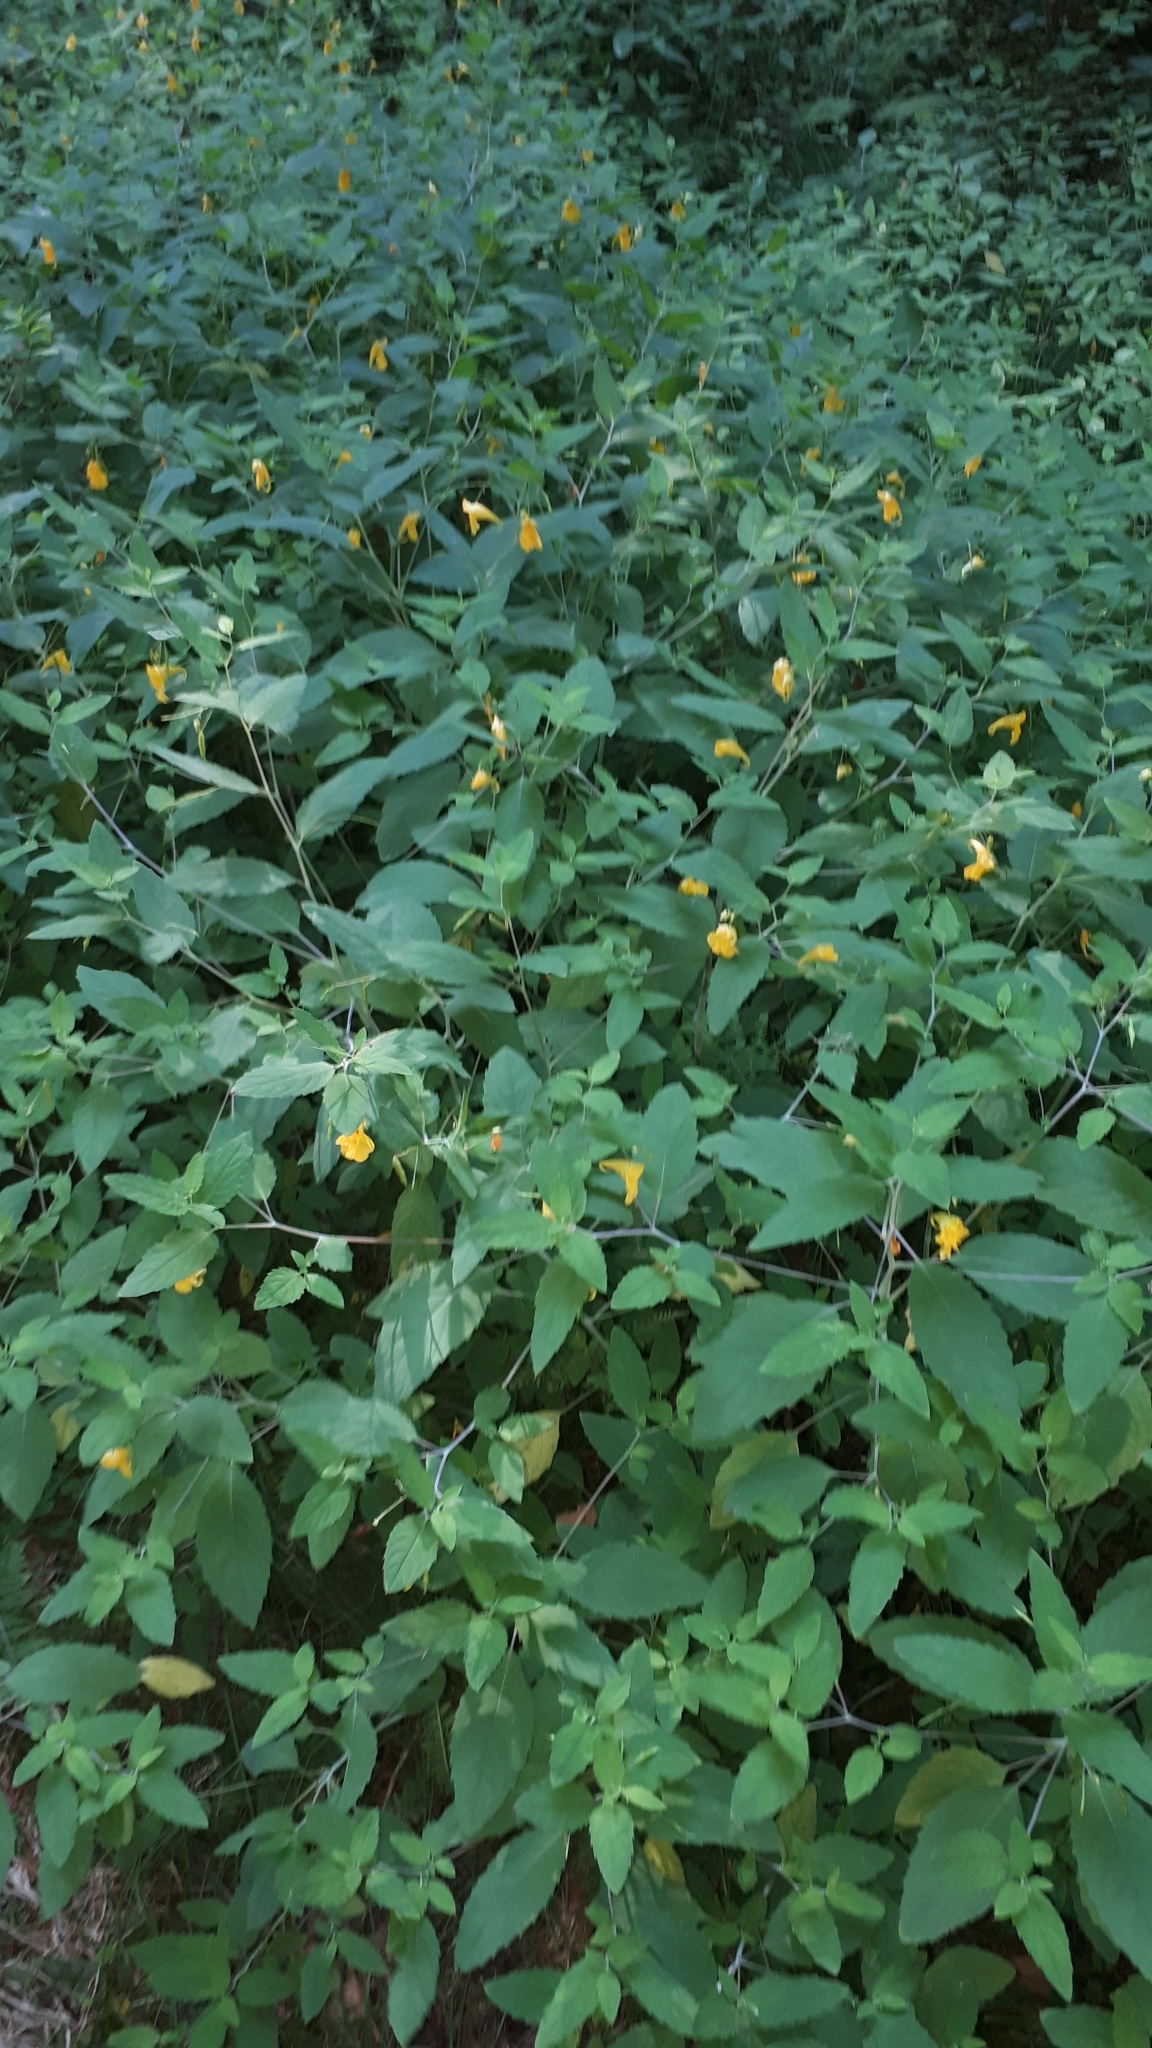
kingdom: Plantae
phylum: Tracheophyta
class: Magnoliopsida
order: Ericales
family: Balsaminaceae
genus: Impatiens
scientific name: Impatiens noli-tangere
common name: Touch-me-not balsam
